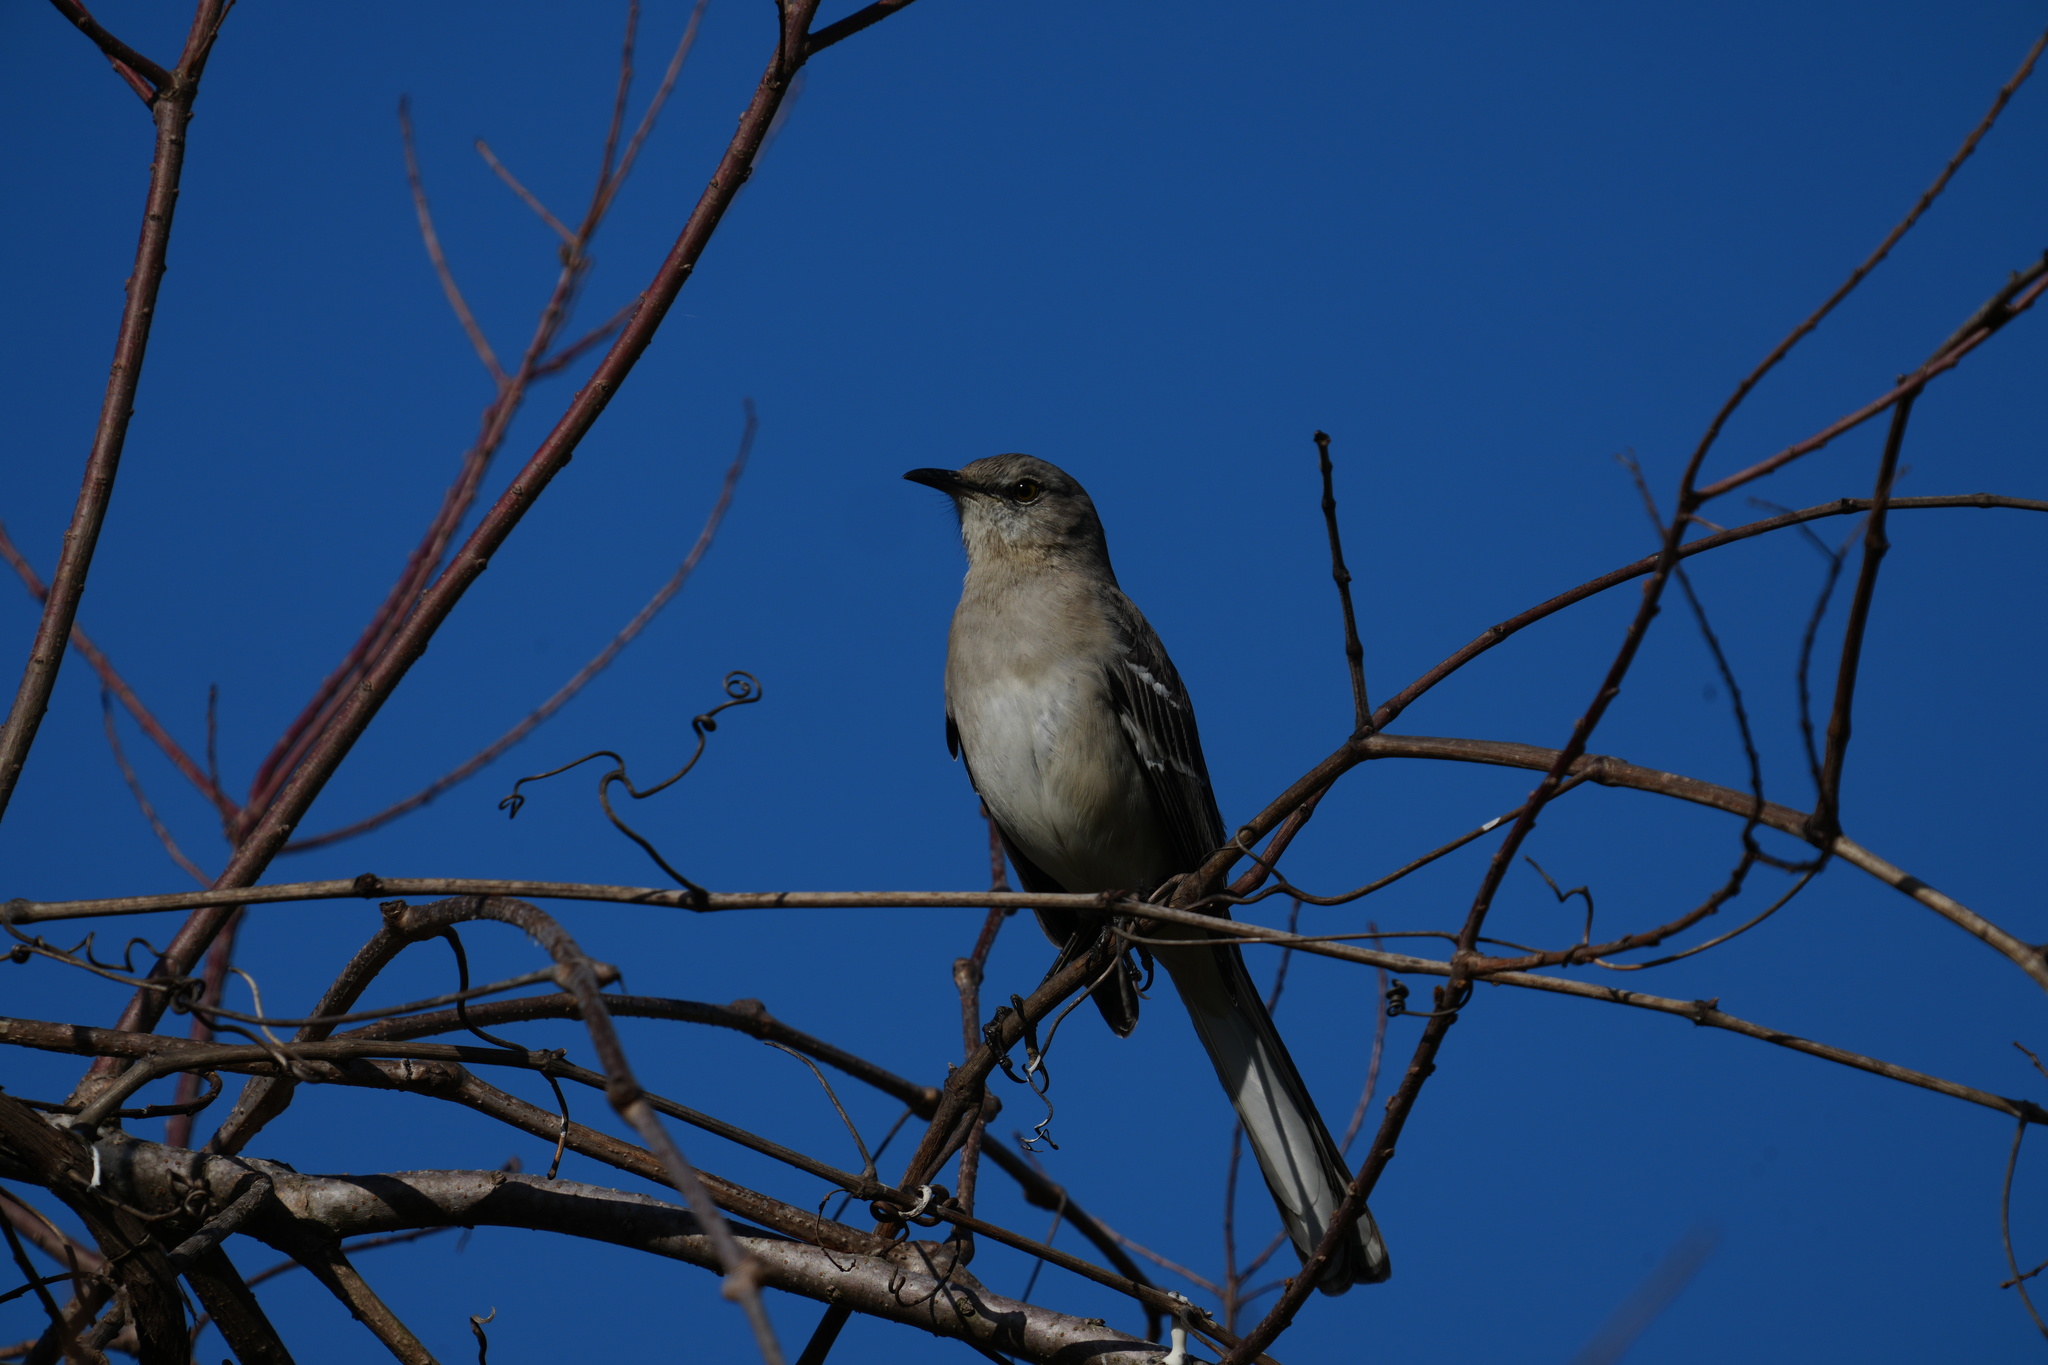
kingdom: Animalia
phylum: Chordata
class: Aves
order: Passeriformes
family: Mimidae
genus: Mimus
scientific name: Mimus polyglottos
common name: Northern mockingbird
